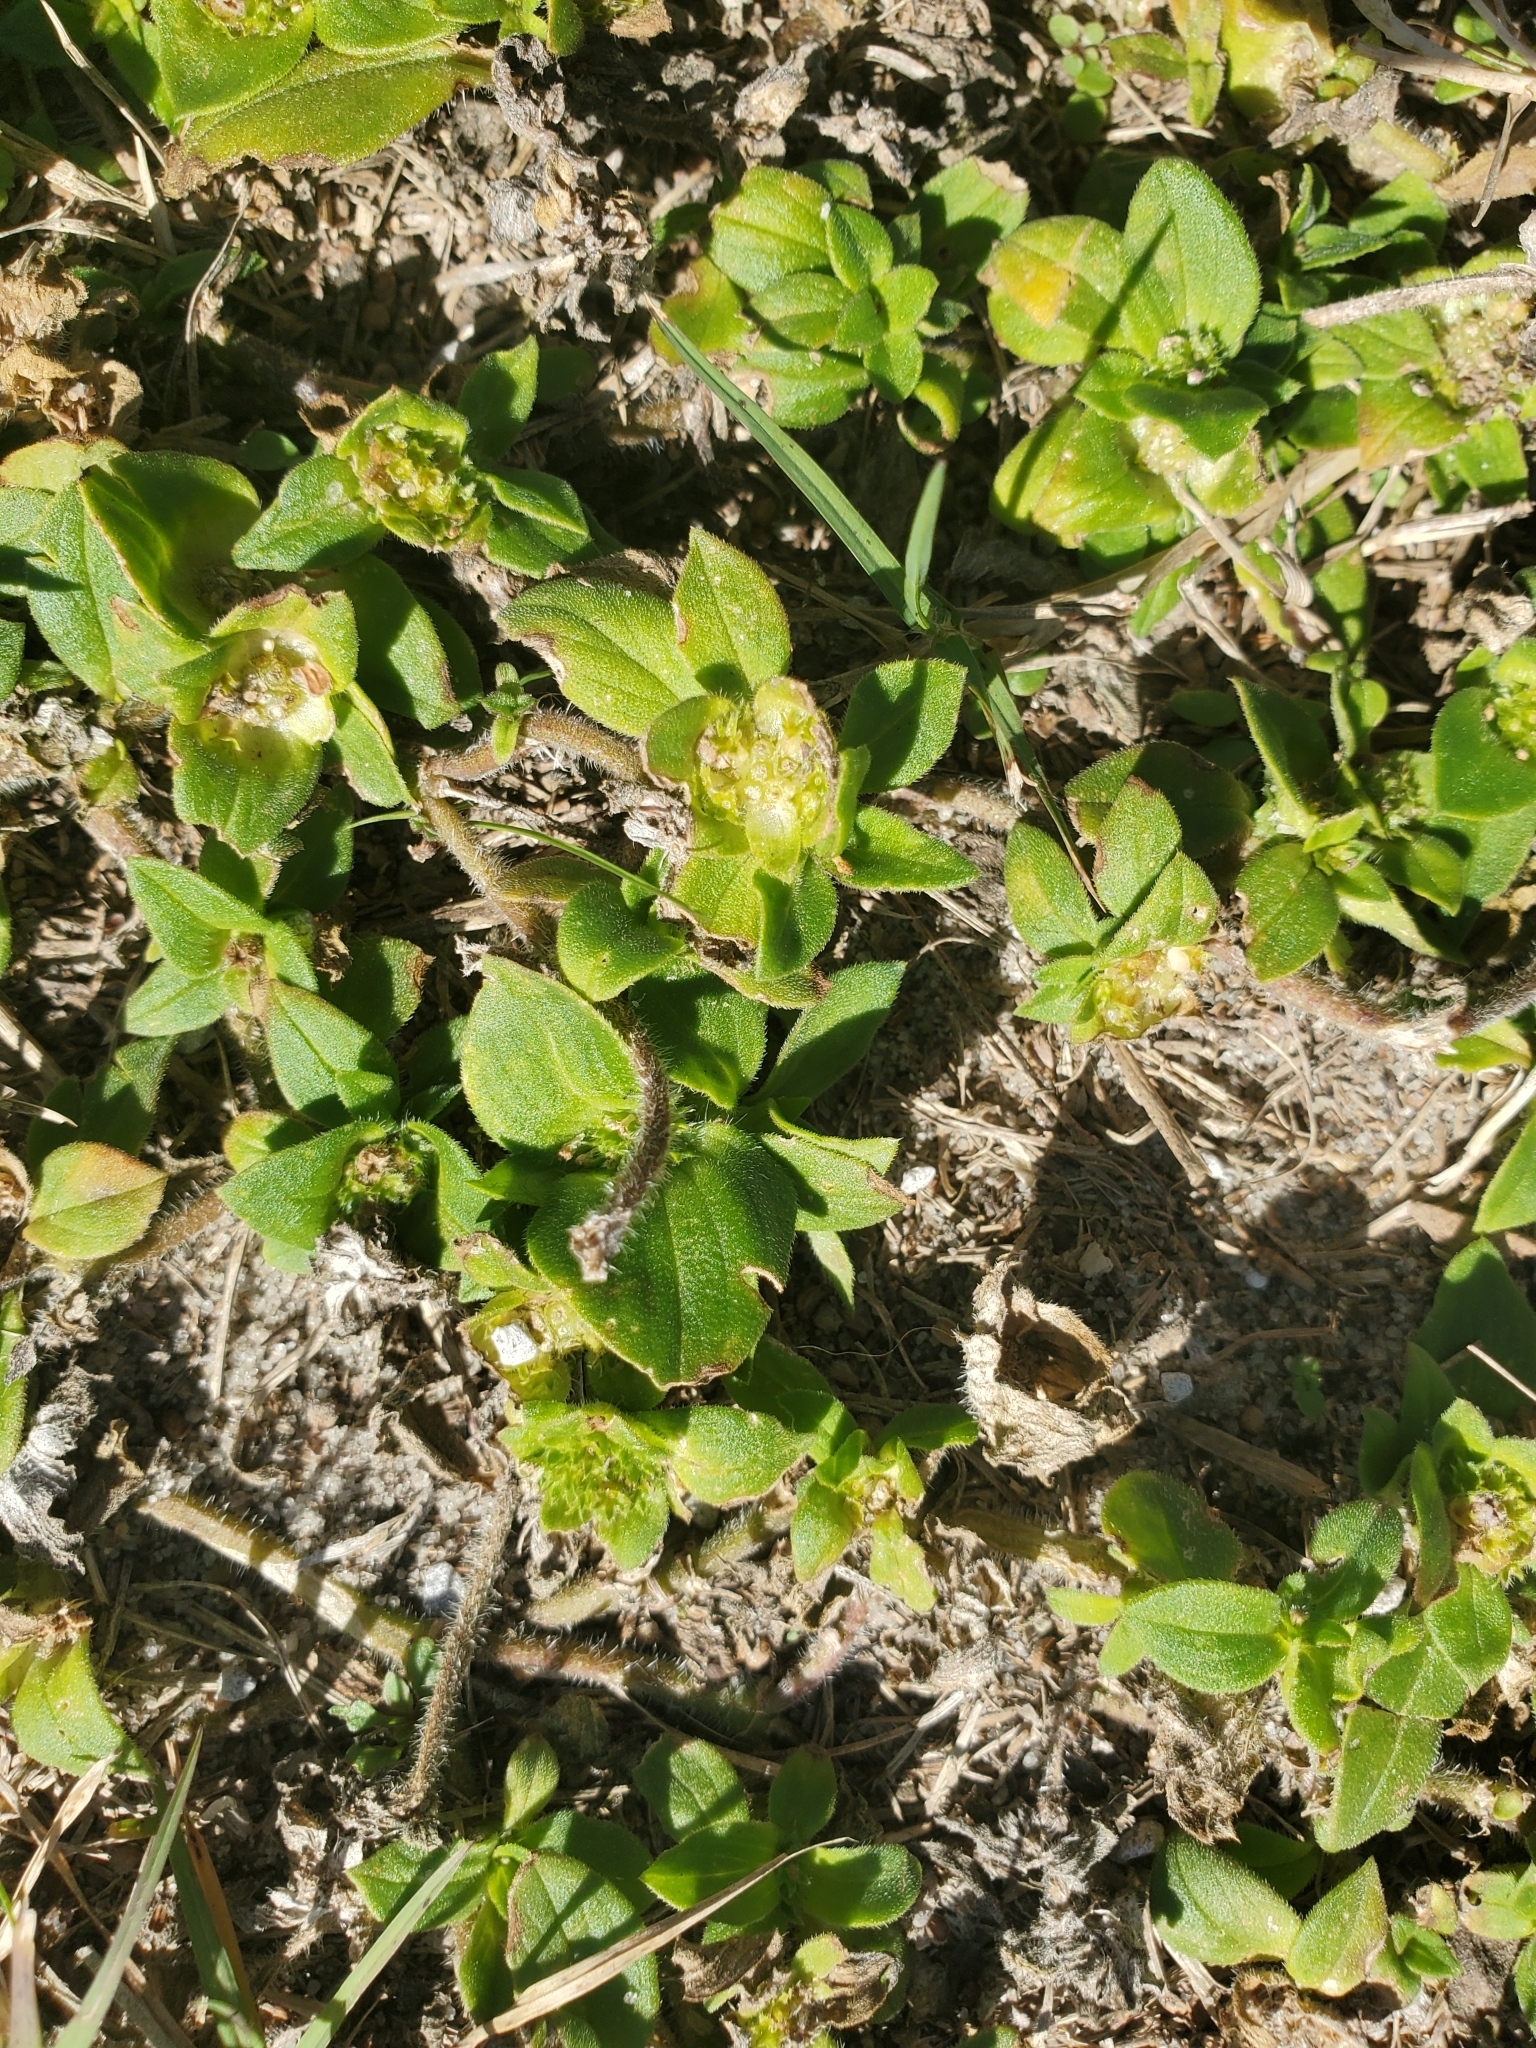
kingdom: Plantae
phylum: Tracheophyta
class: Magnoliopsida
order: Gentianales
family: Rubiaceae
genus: Richardia
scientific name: Richardia brasiliensis
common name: Tropical mexican clover
